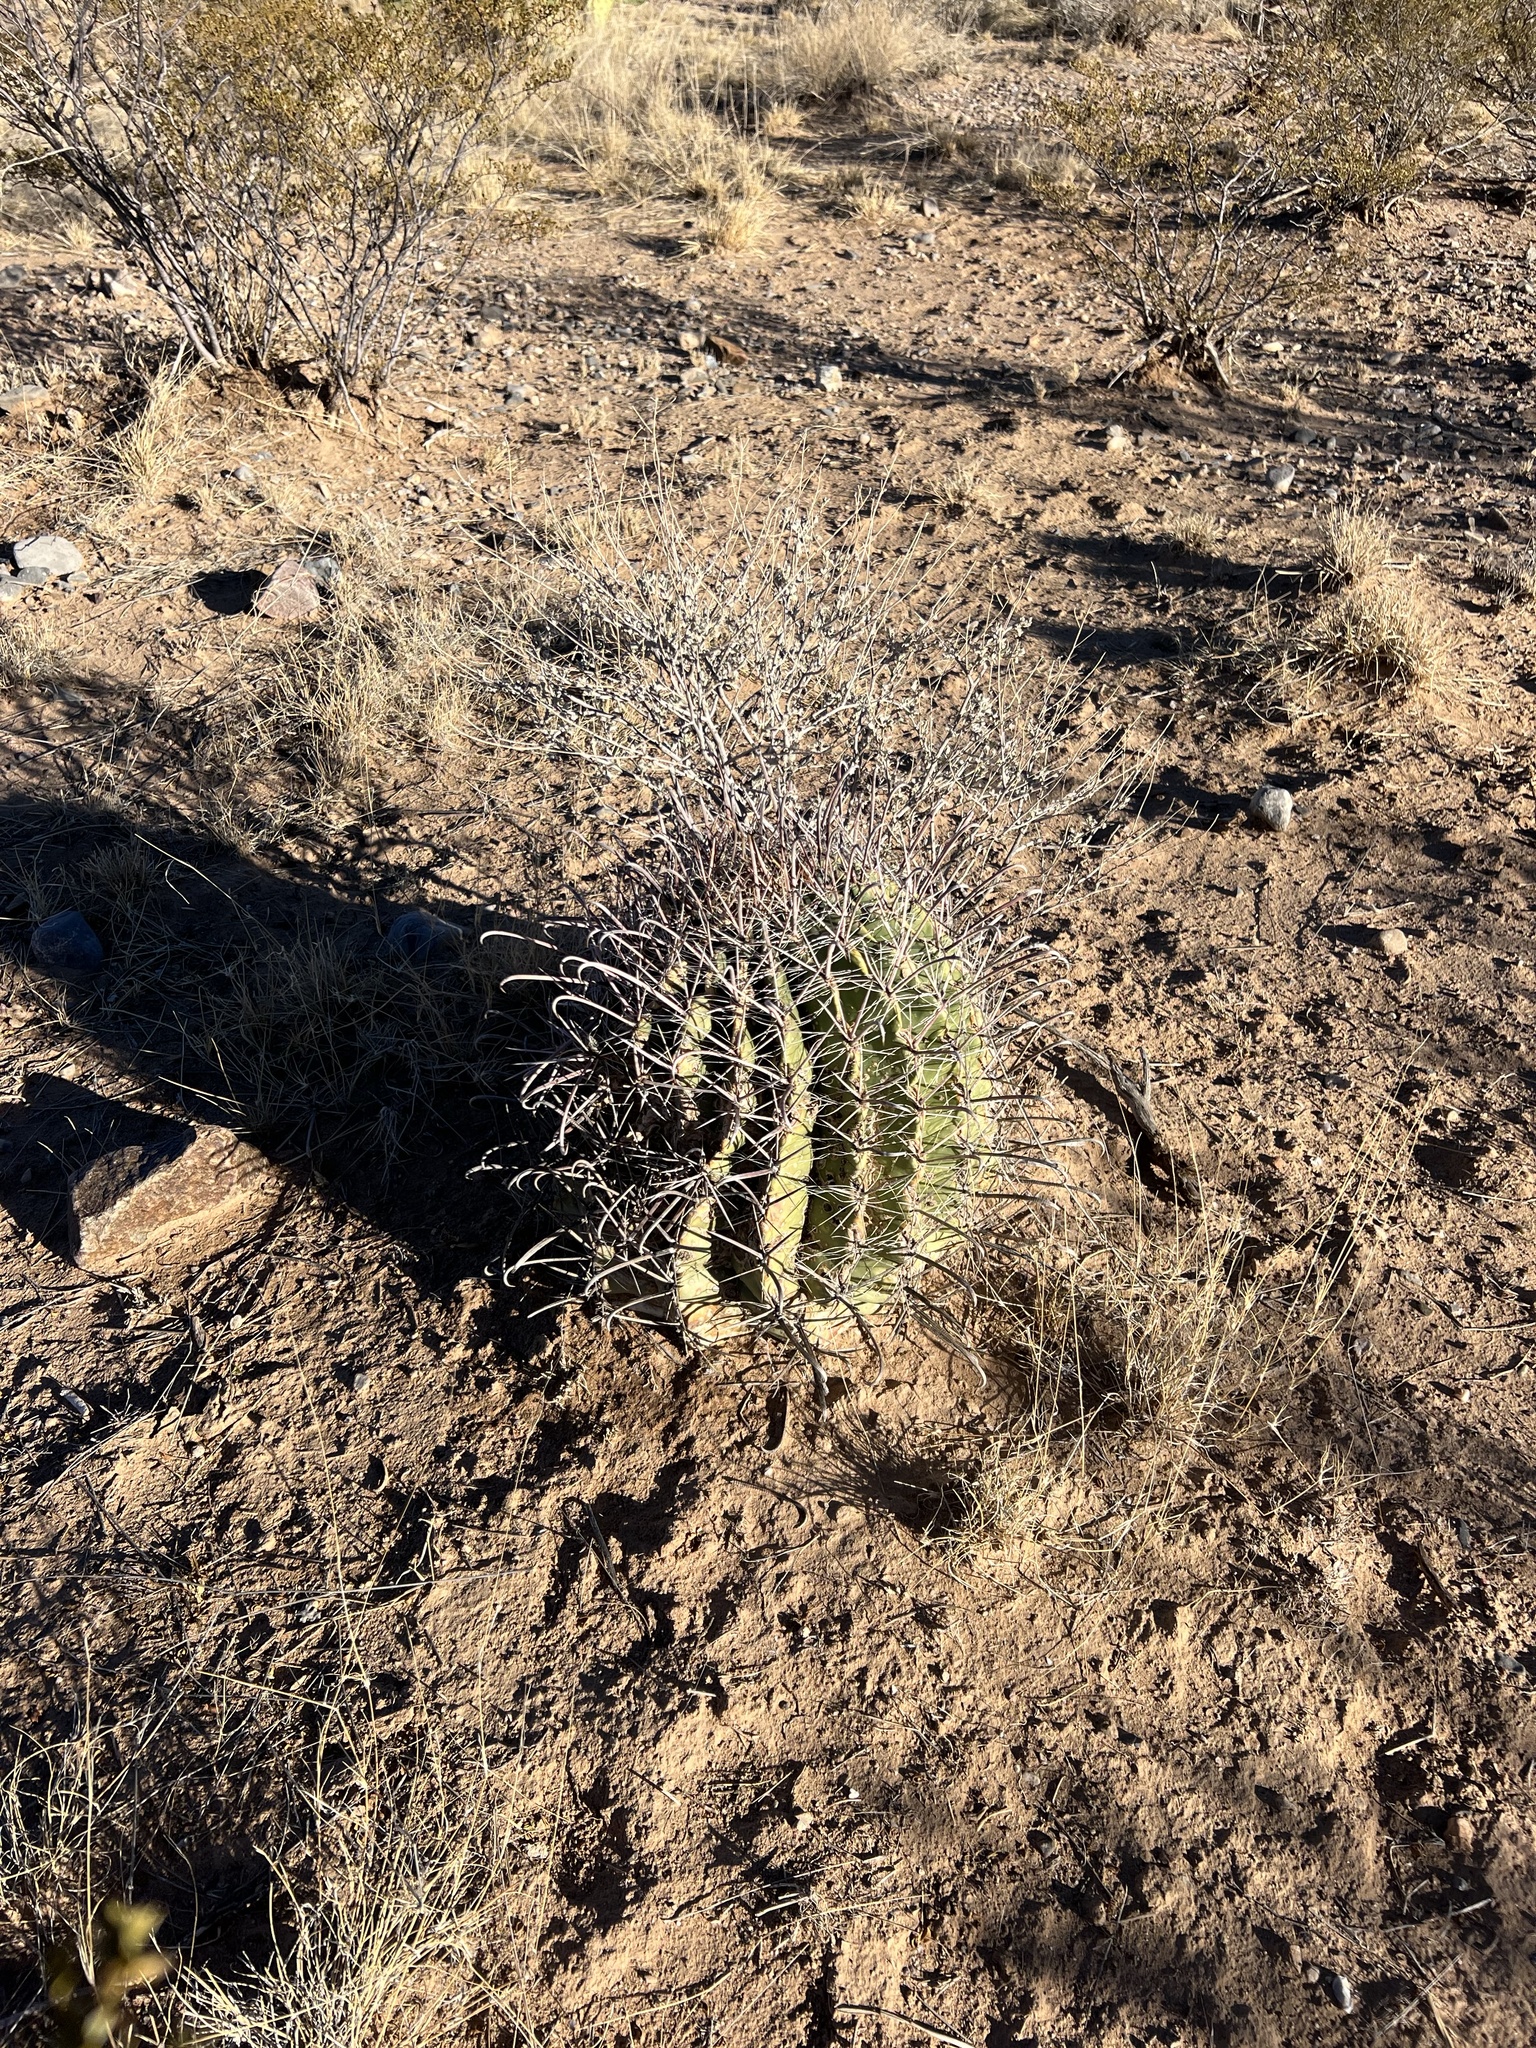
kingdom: Plantae
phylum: Tracheophyta
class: Magnoliopsida
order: Caryophyllales
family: Cactaceae
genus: Ferocactus
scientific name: Ferocactus wislizeni
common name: Candy barrel cactus
